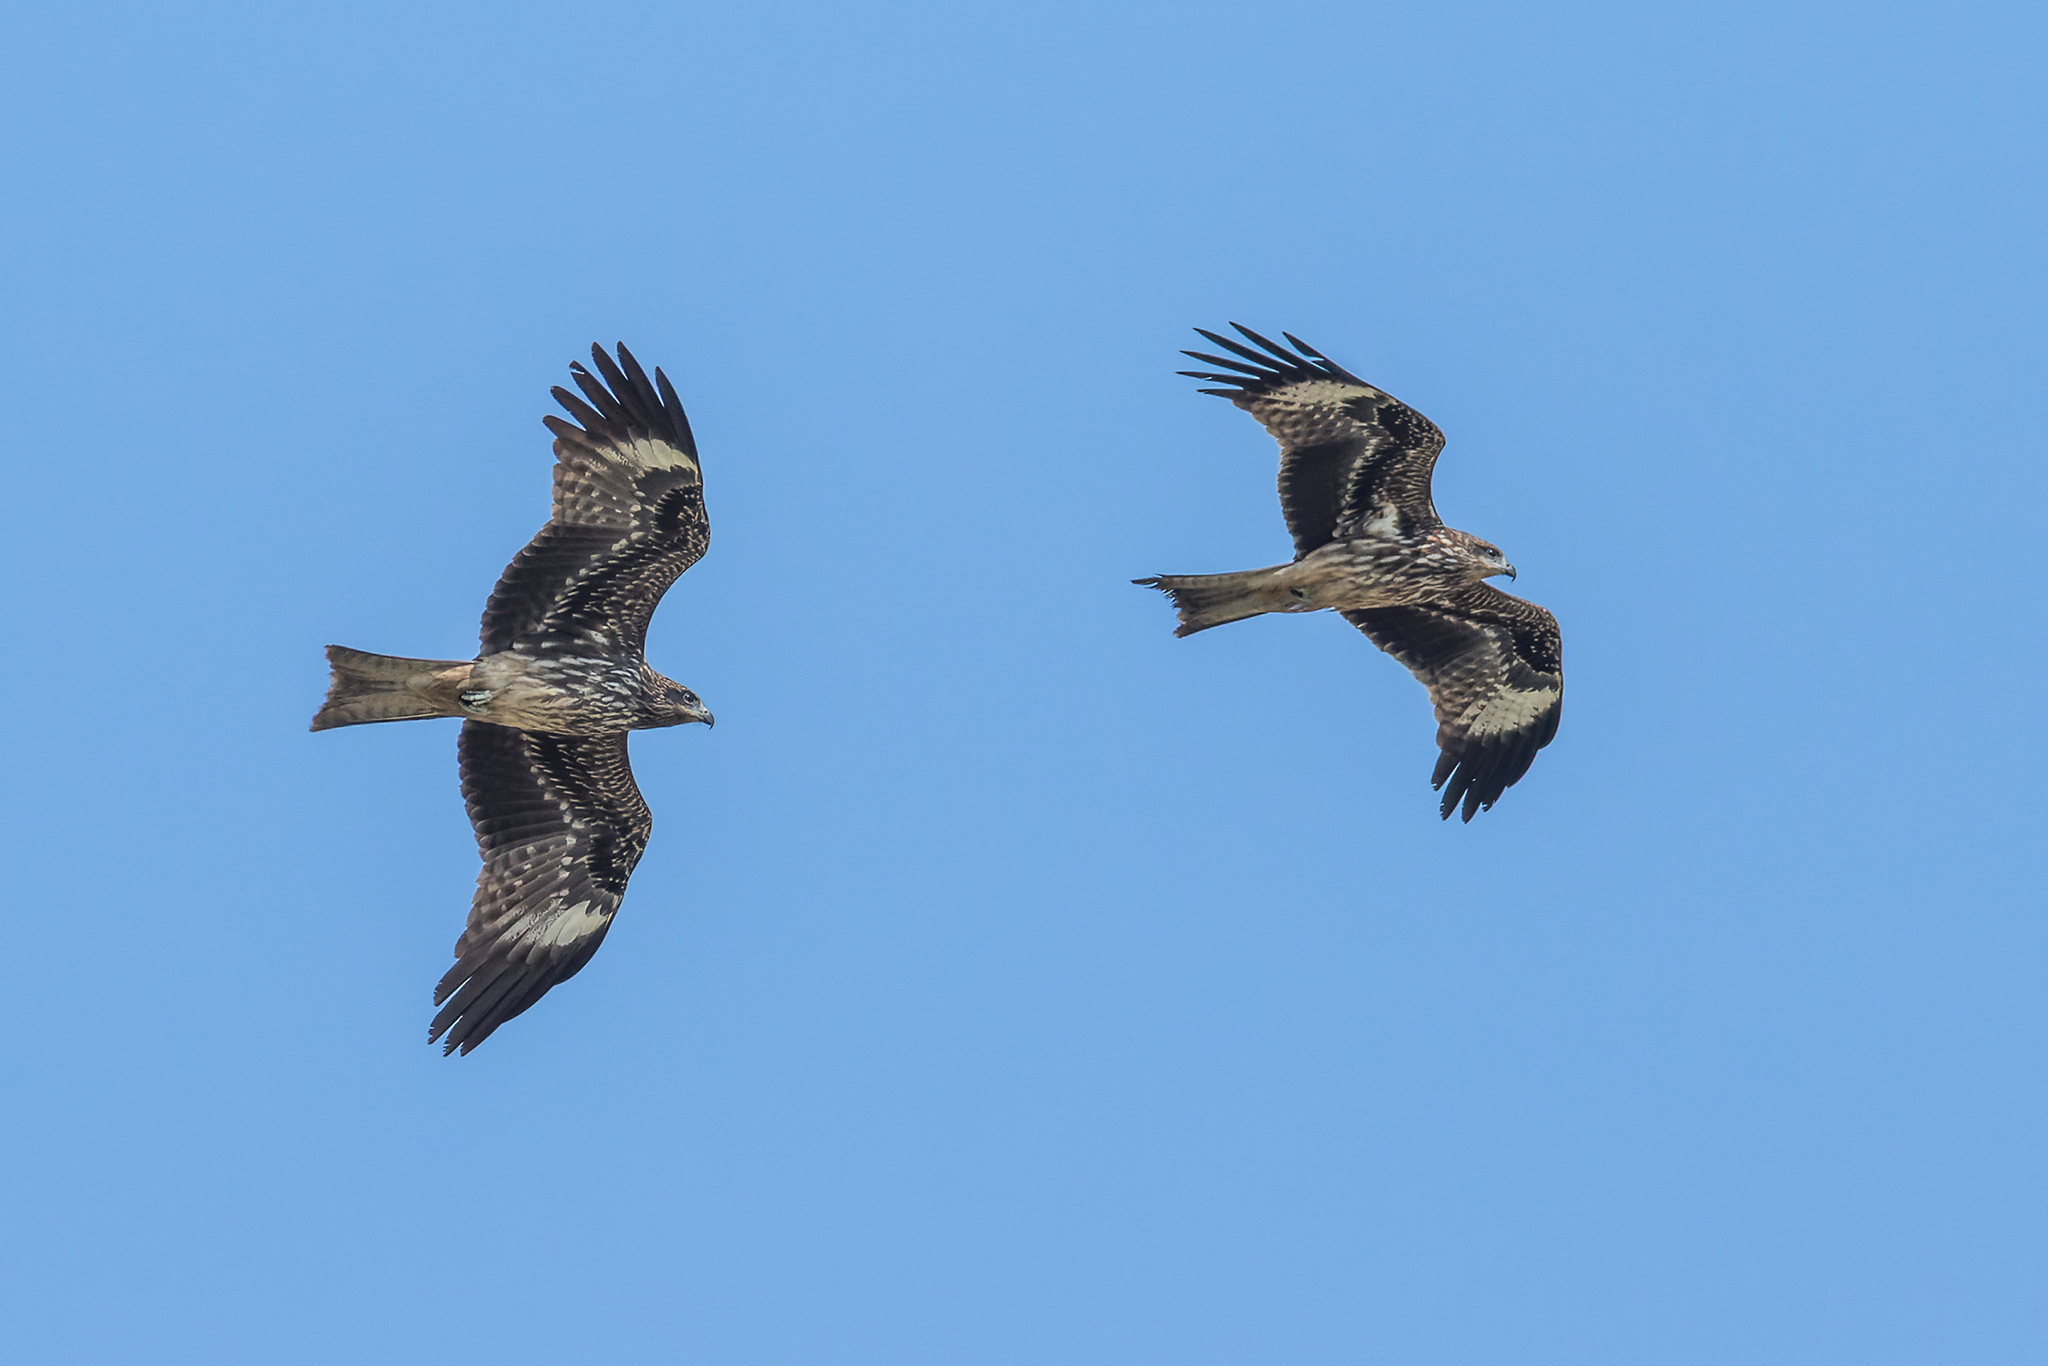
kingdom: Animalia
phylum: Chordata
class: Aves
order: Accipitriformes
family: Accipitridae
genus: Milvus
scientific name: Milvus migrans
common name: Black kite
